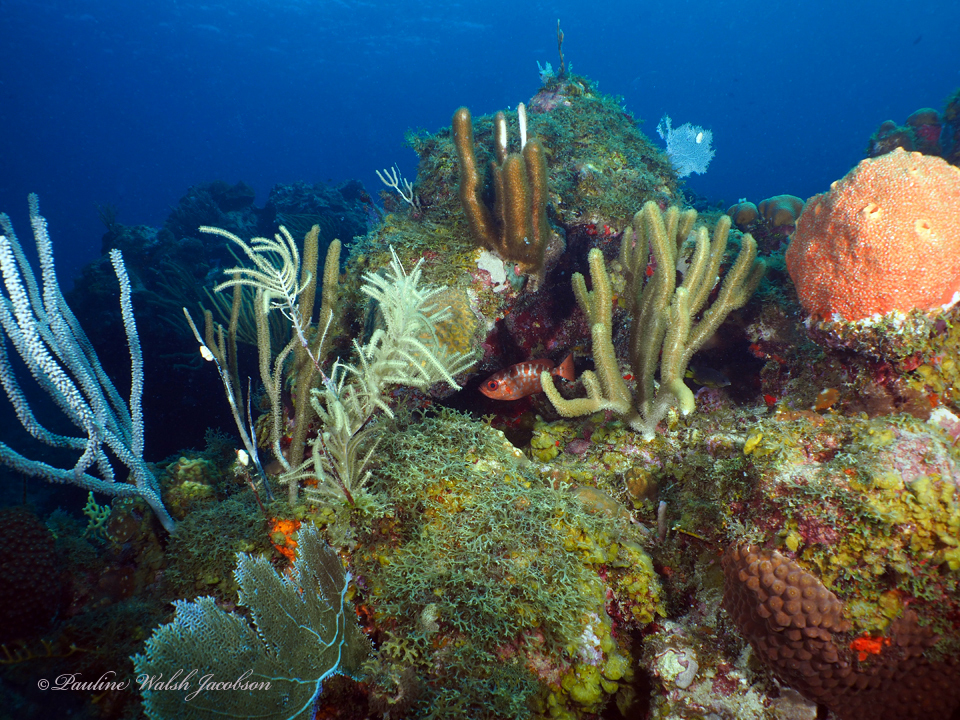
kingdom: Animalia
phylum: Chordata
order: Perciformes
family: Priacanthidae
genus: Heteropriacanthus
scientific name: Heteropriacanthus cruentatus
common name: Glasseye
